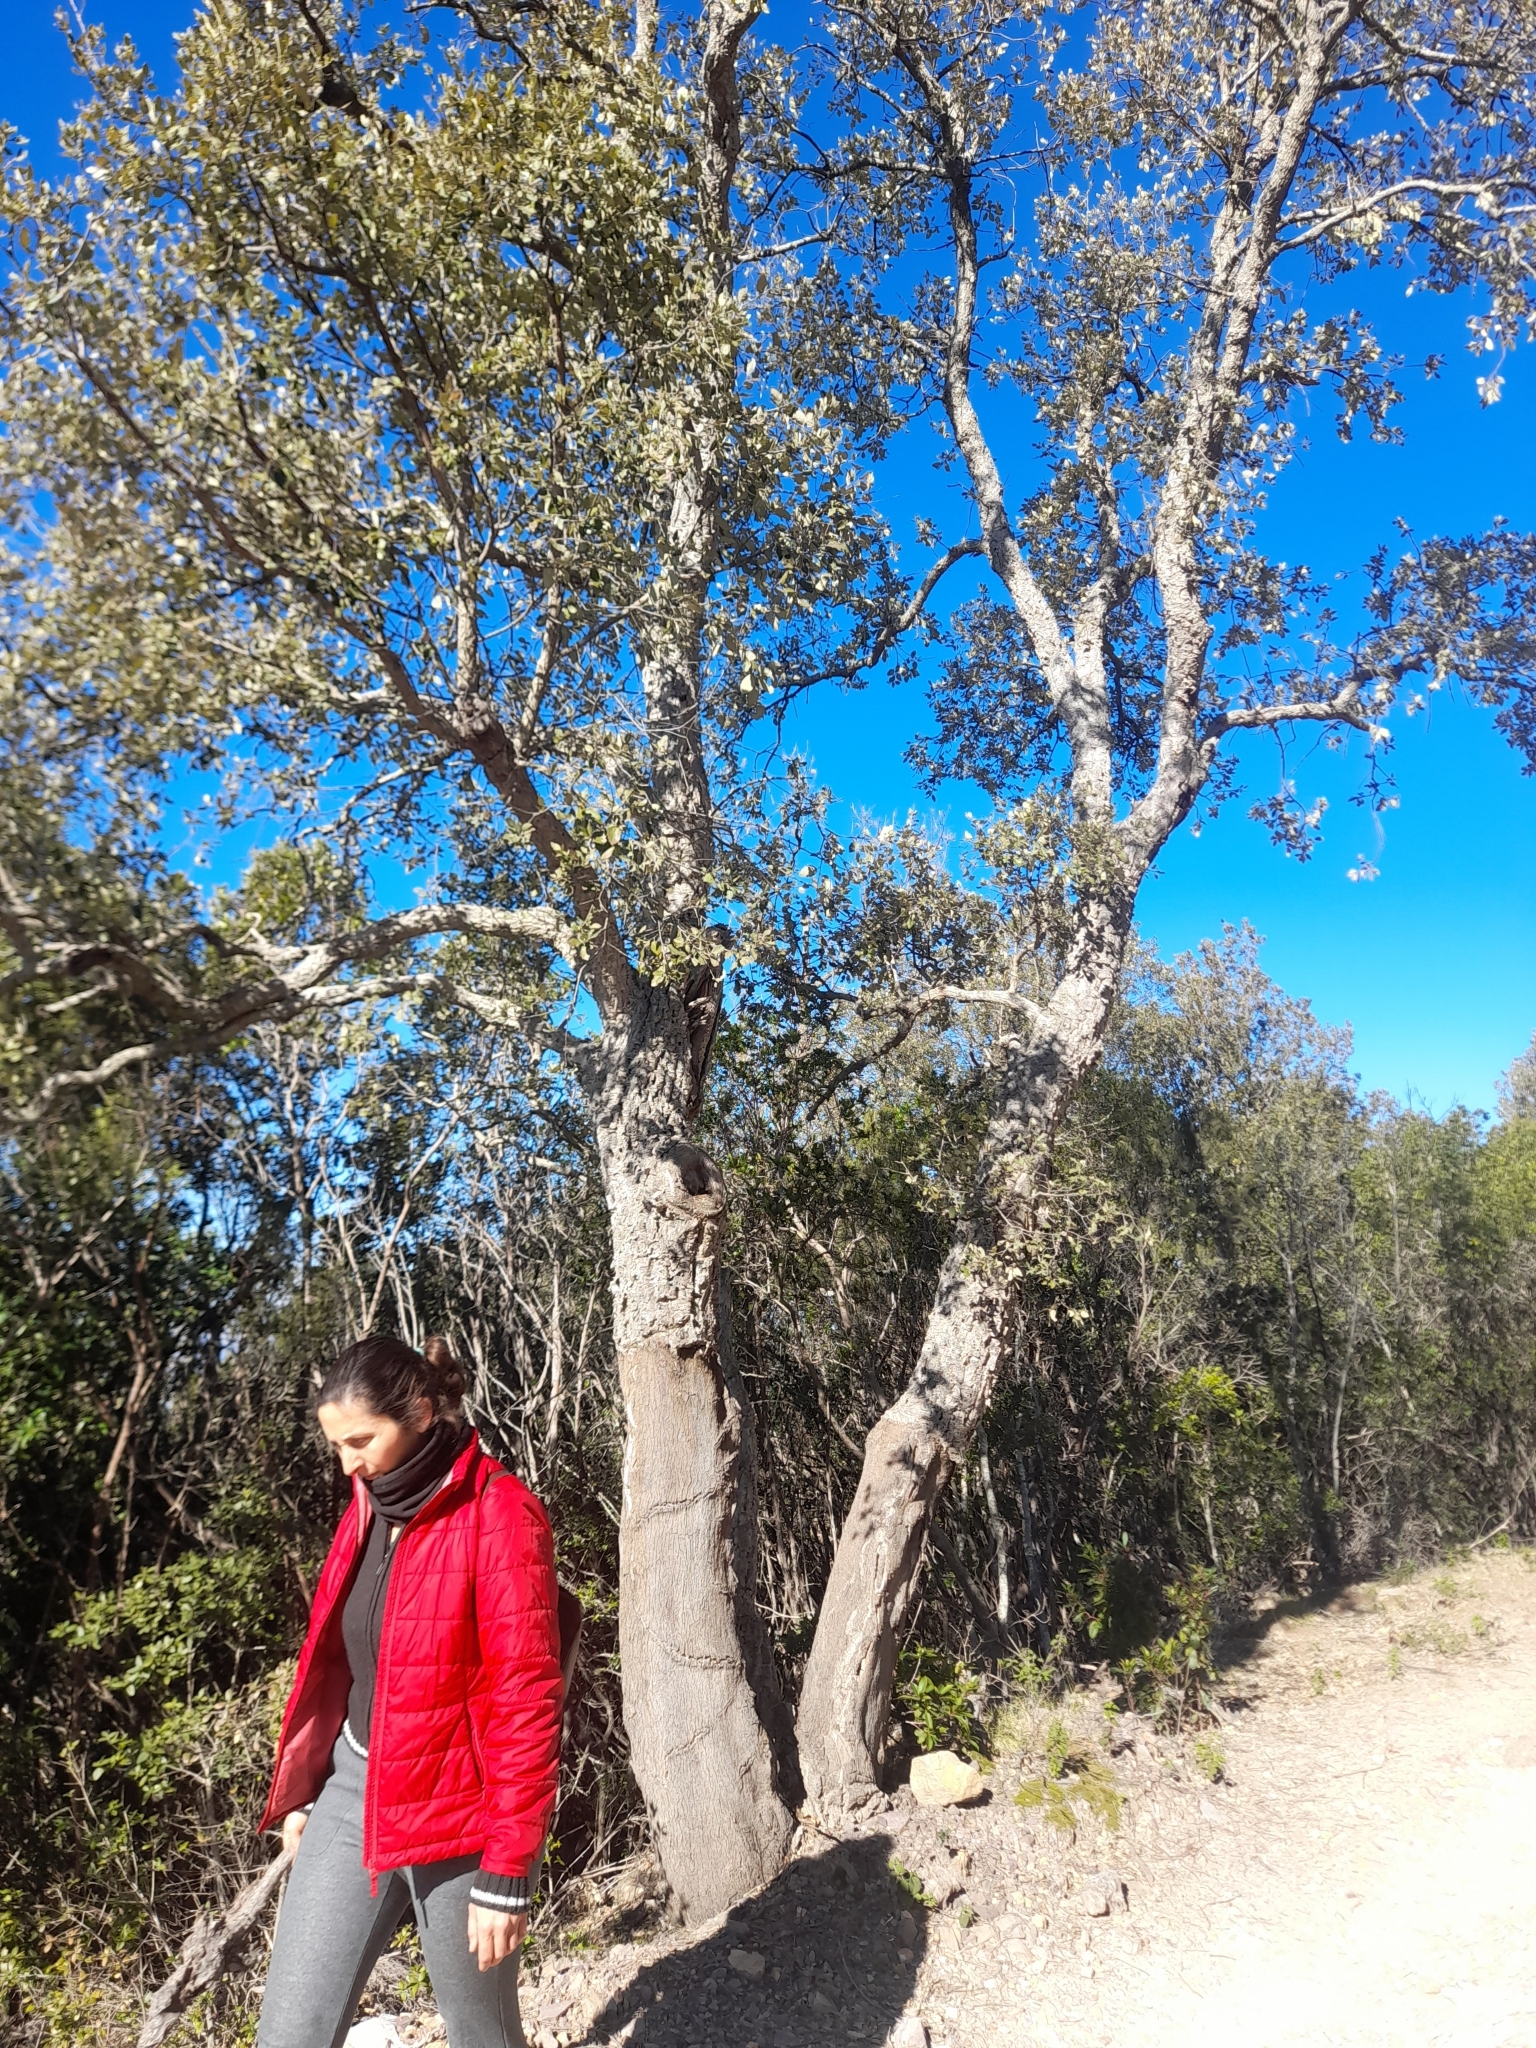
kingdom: Plantae
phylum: Tracheophyta
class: Magnoliopsida
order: Fagales
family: Fagaceae
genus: Quercus
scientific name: Quercus suber
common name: Cork oak
